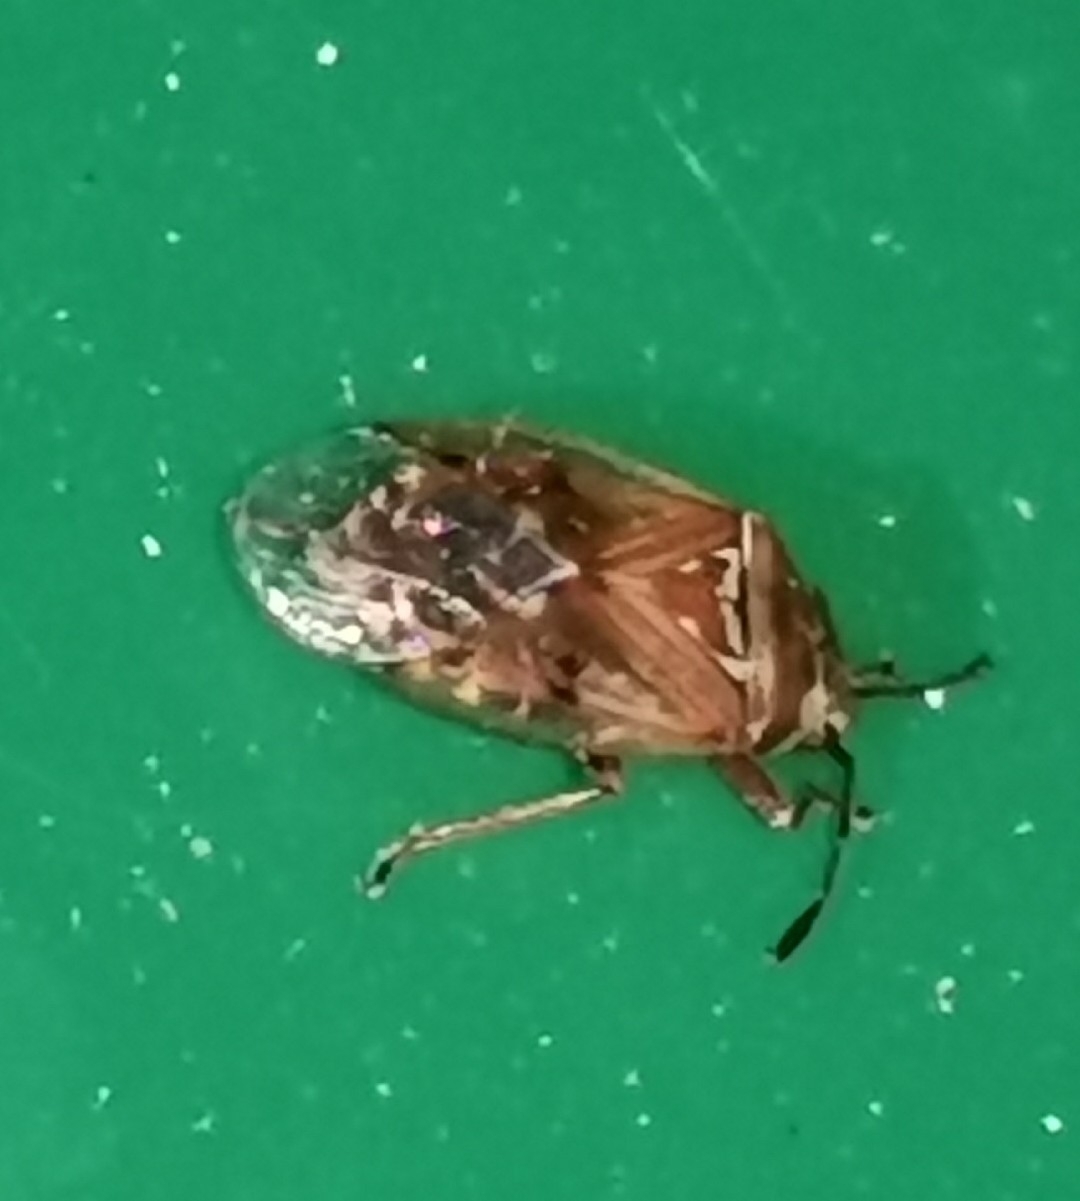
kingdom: Animalia
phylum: Arthropoda
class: Insecta
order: Hemiptera
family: Lygaeidae
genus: Kleidocerys
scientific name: Kleidocerys resedae
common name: Birch catkin bug
